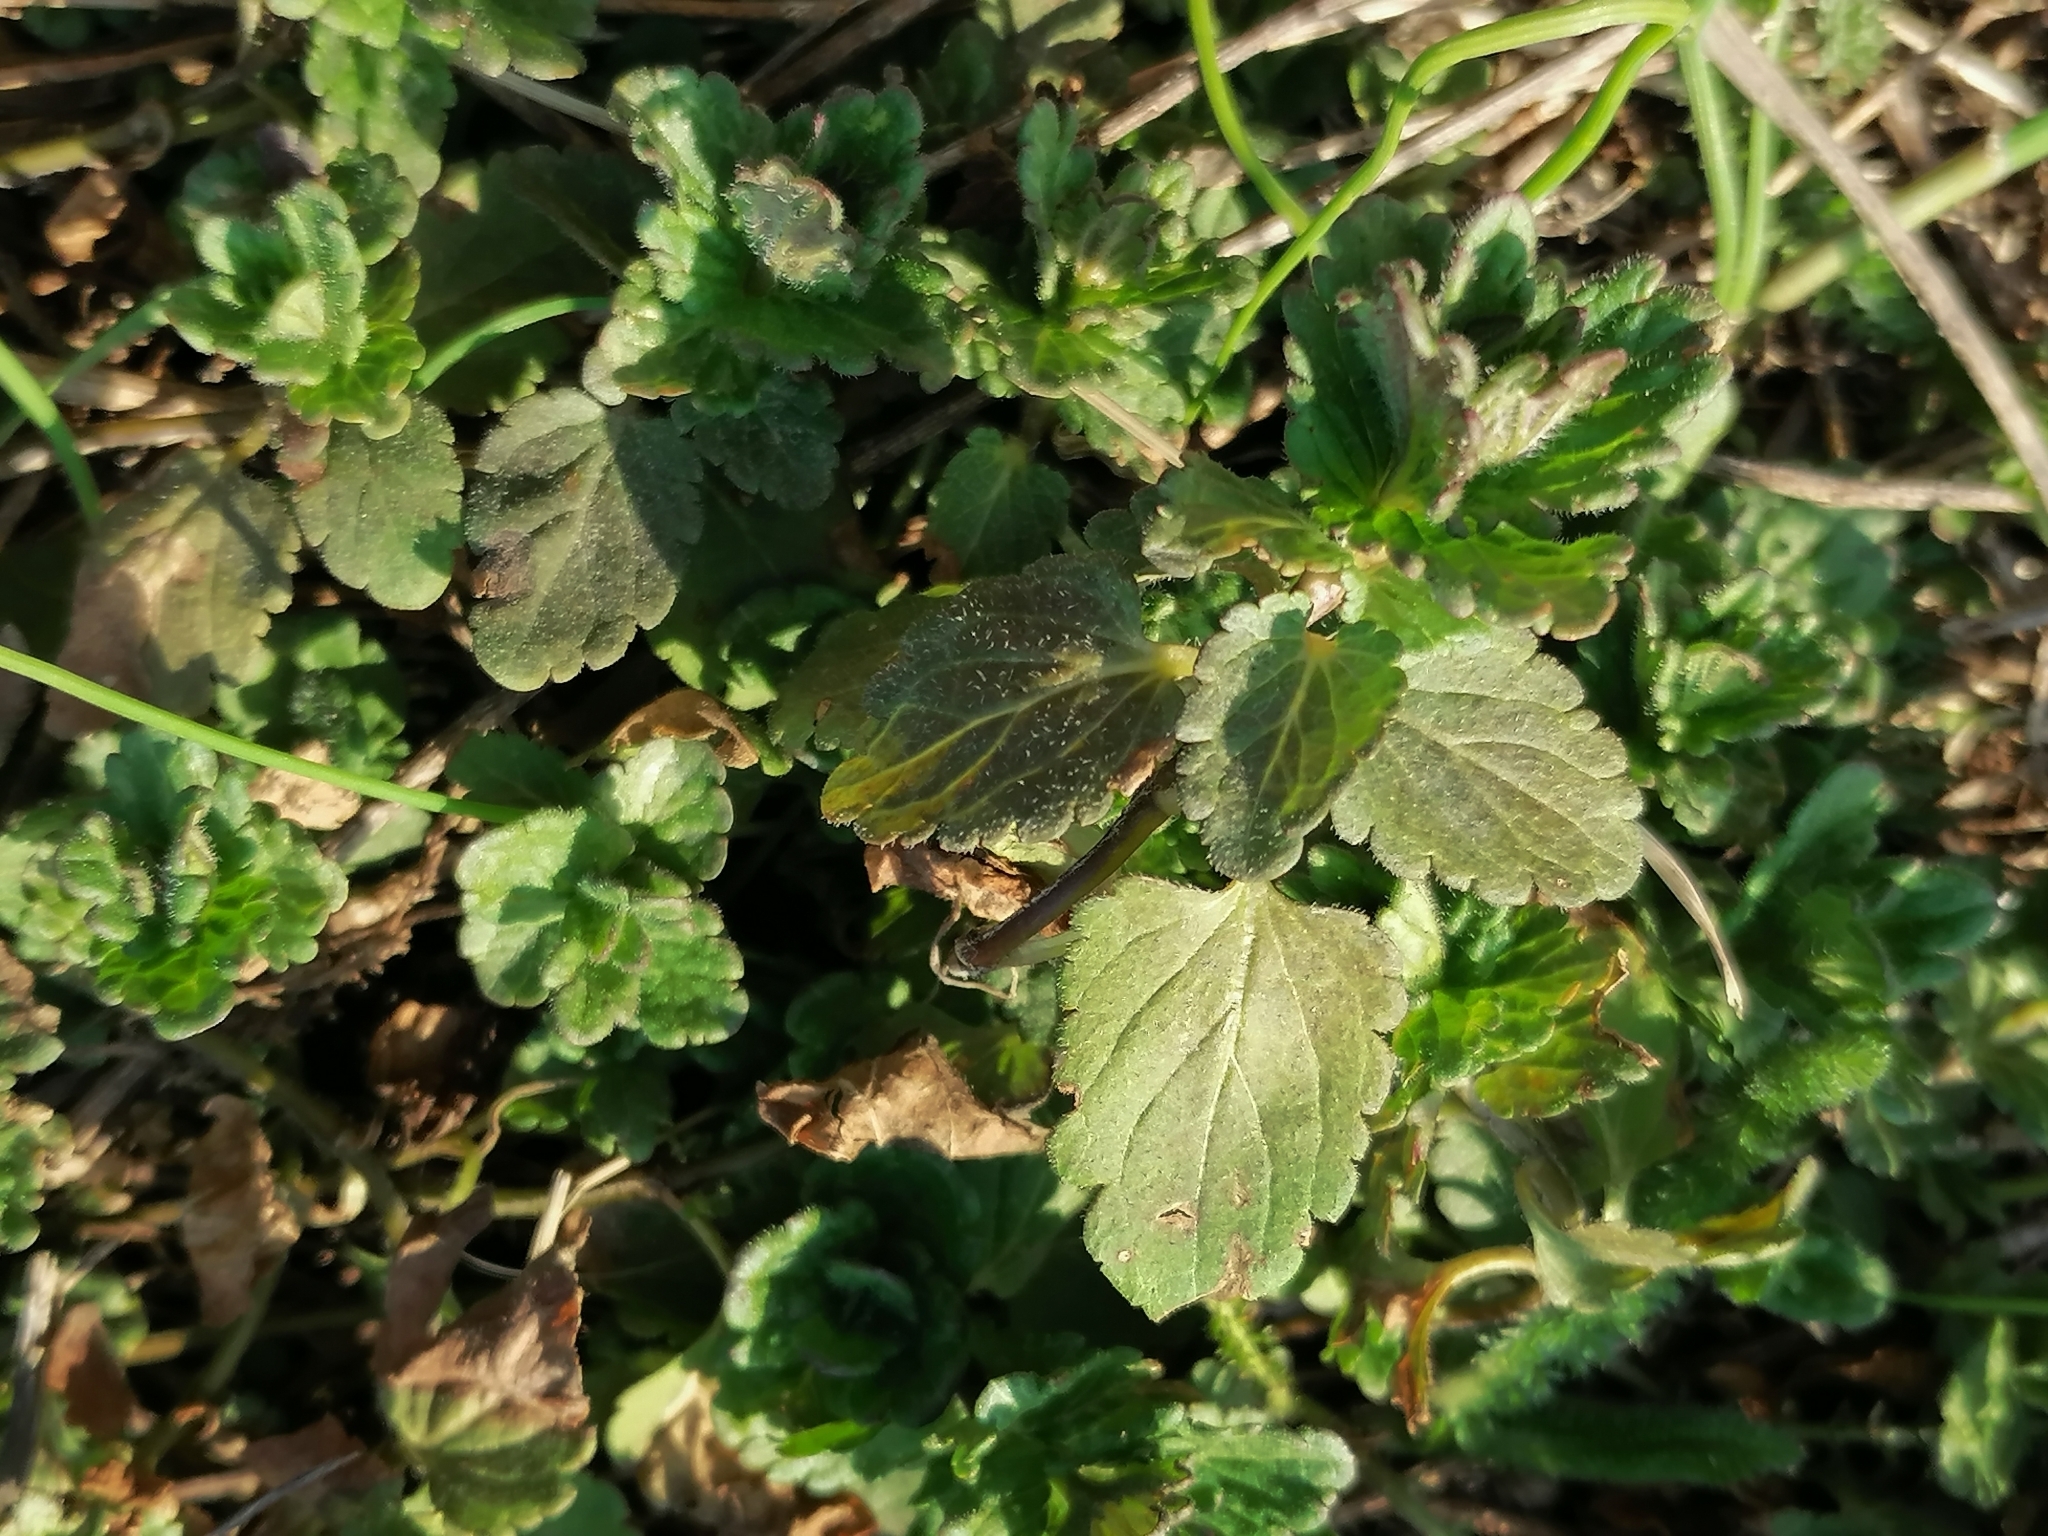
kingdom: Plantae
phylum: Tracheophyta
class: Magnoliopsida
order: Lamiales
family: Plantaginaceae
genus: Veronica
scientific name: Veronica chamaedrys
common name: Germander speedwell
